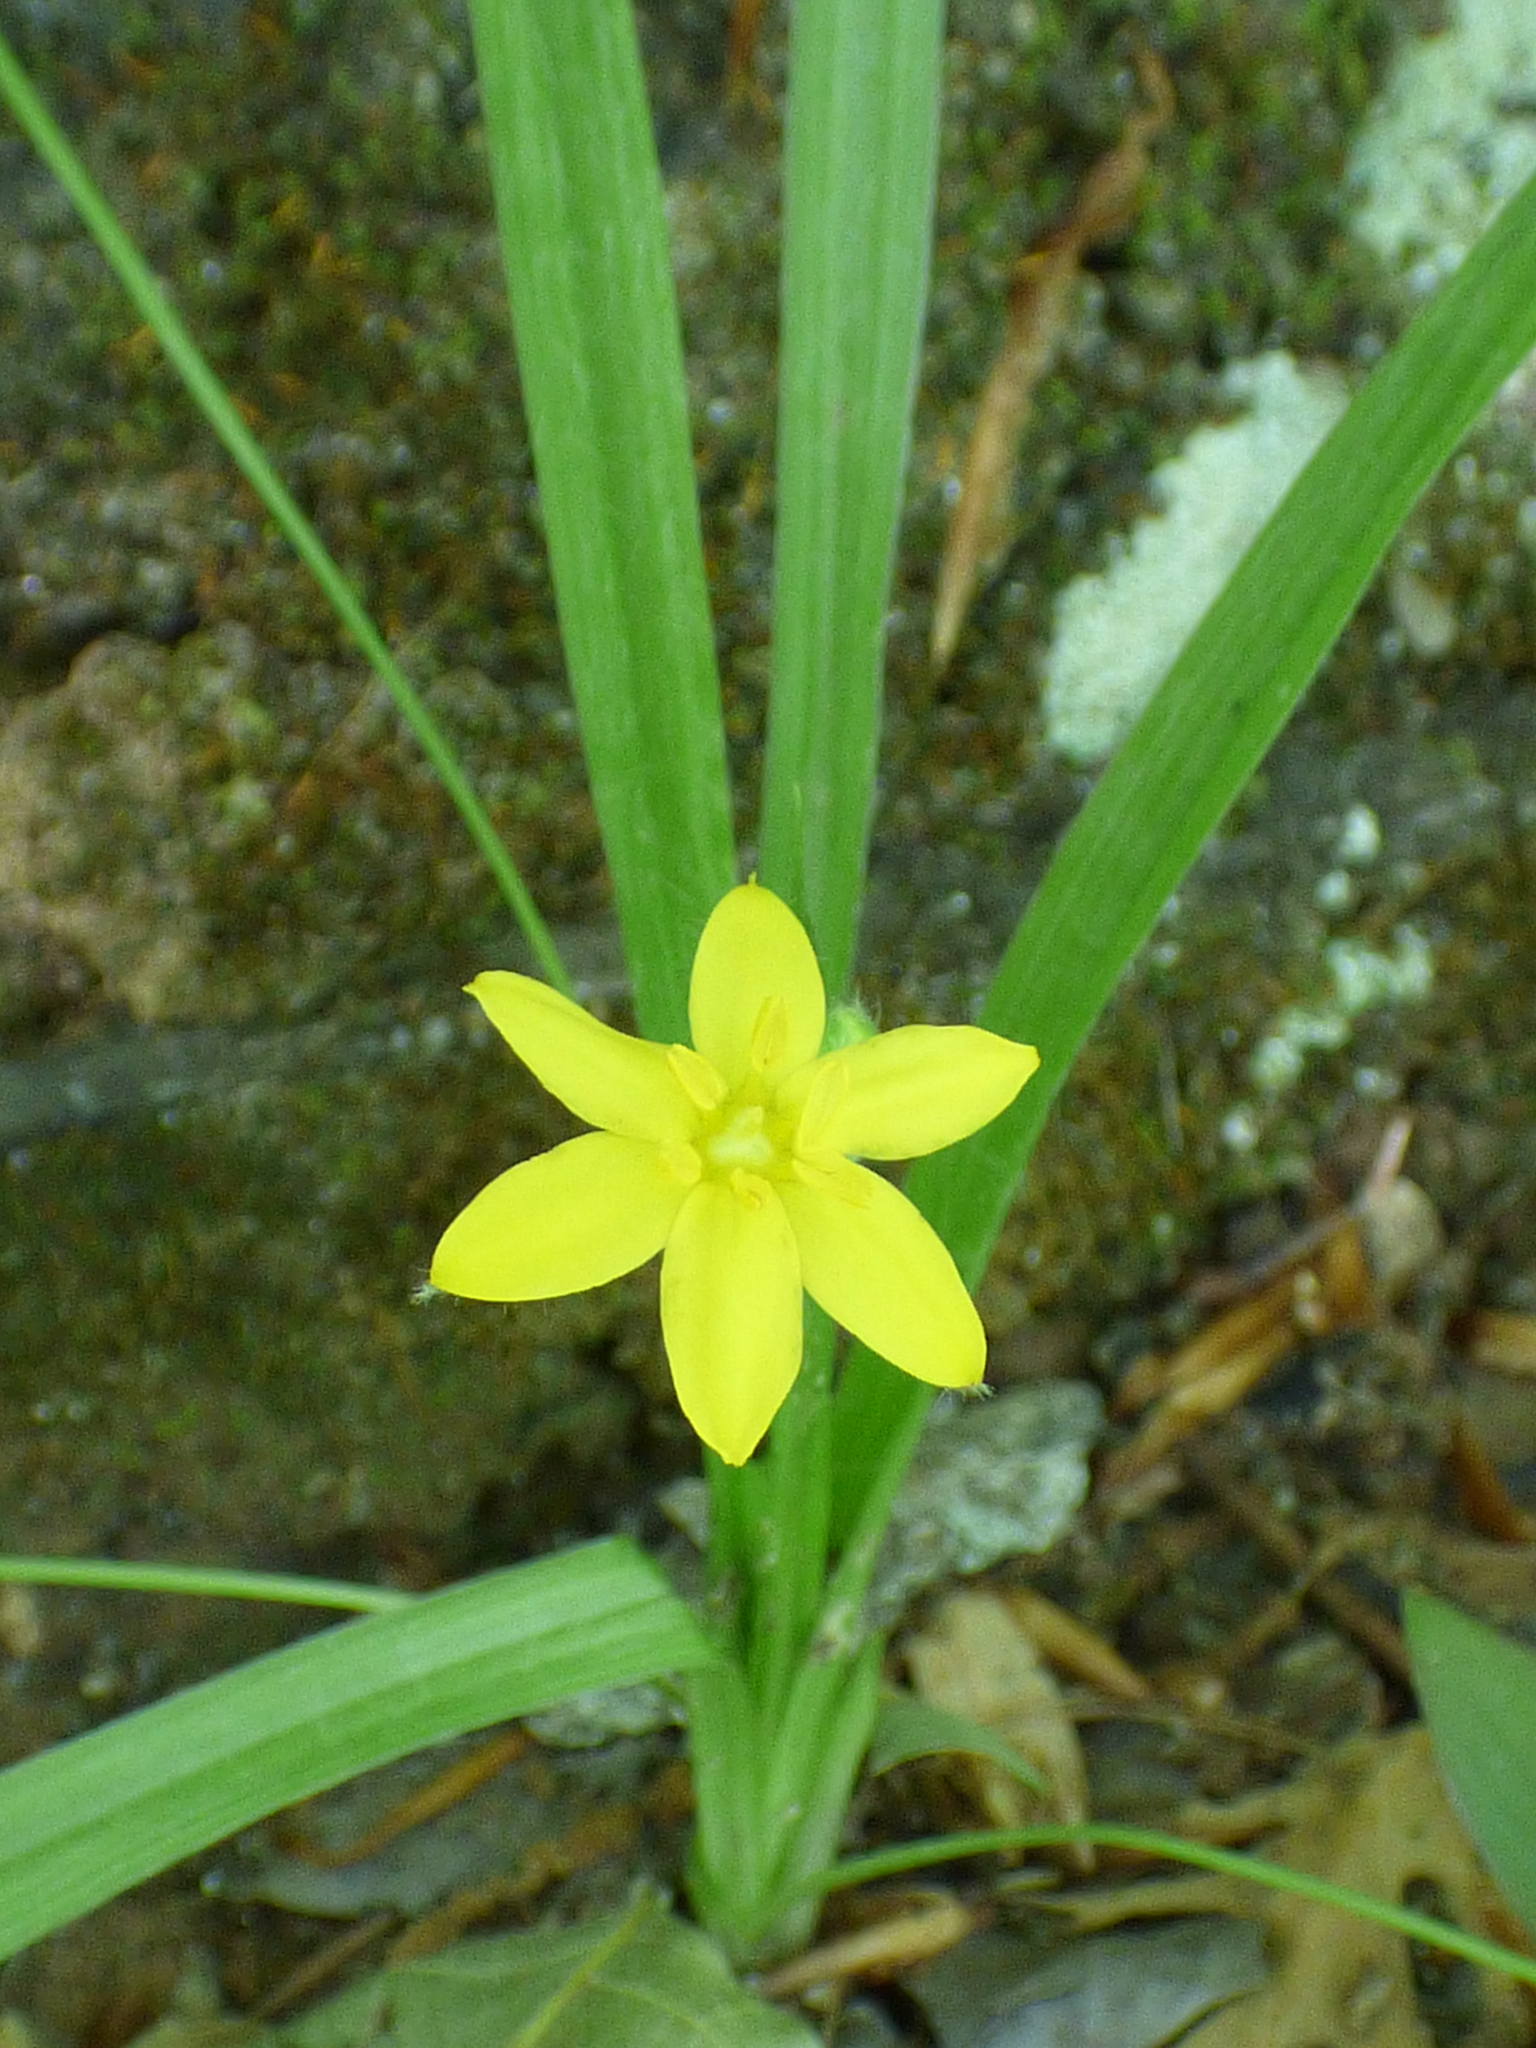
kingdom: Plantae
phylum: Tracheophyta
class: Liliopsida
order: Asparagales
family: Hypoxidaceae
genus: Hypoxis
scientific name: Hypoxis hirsuta
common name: Common goldstar
